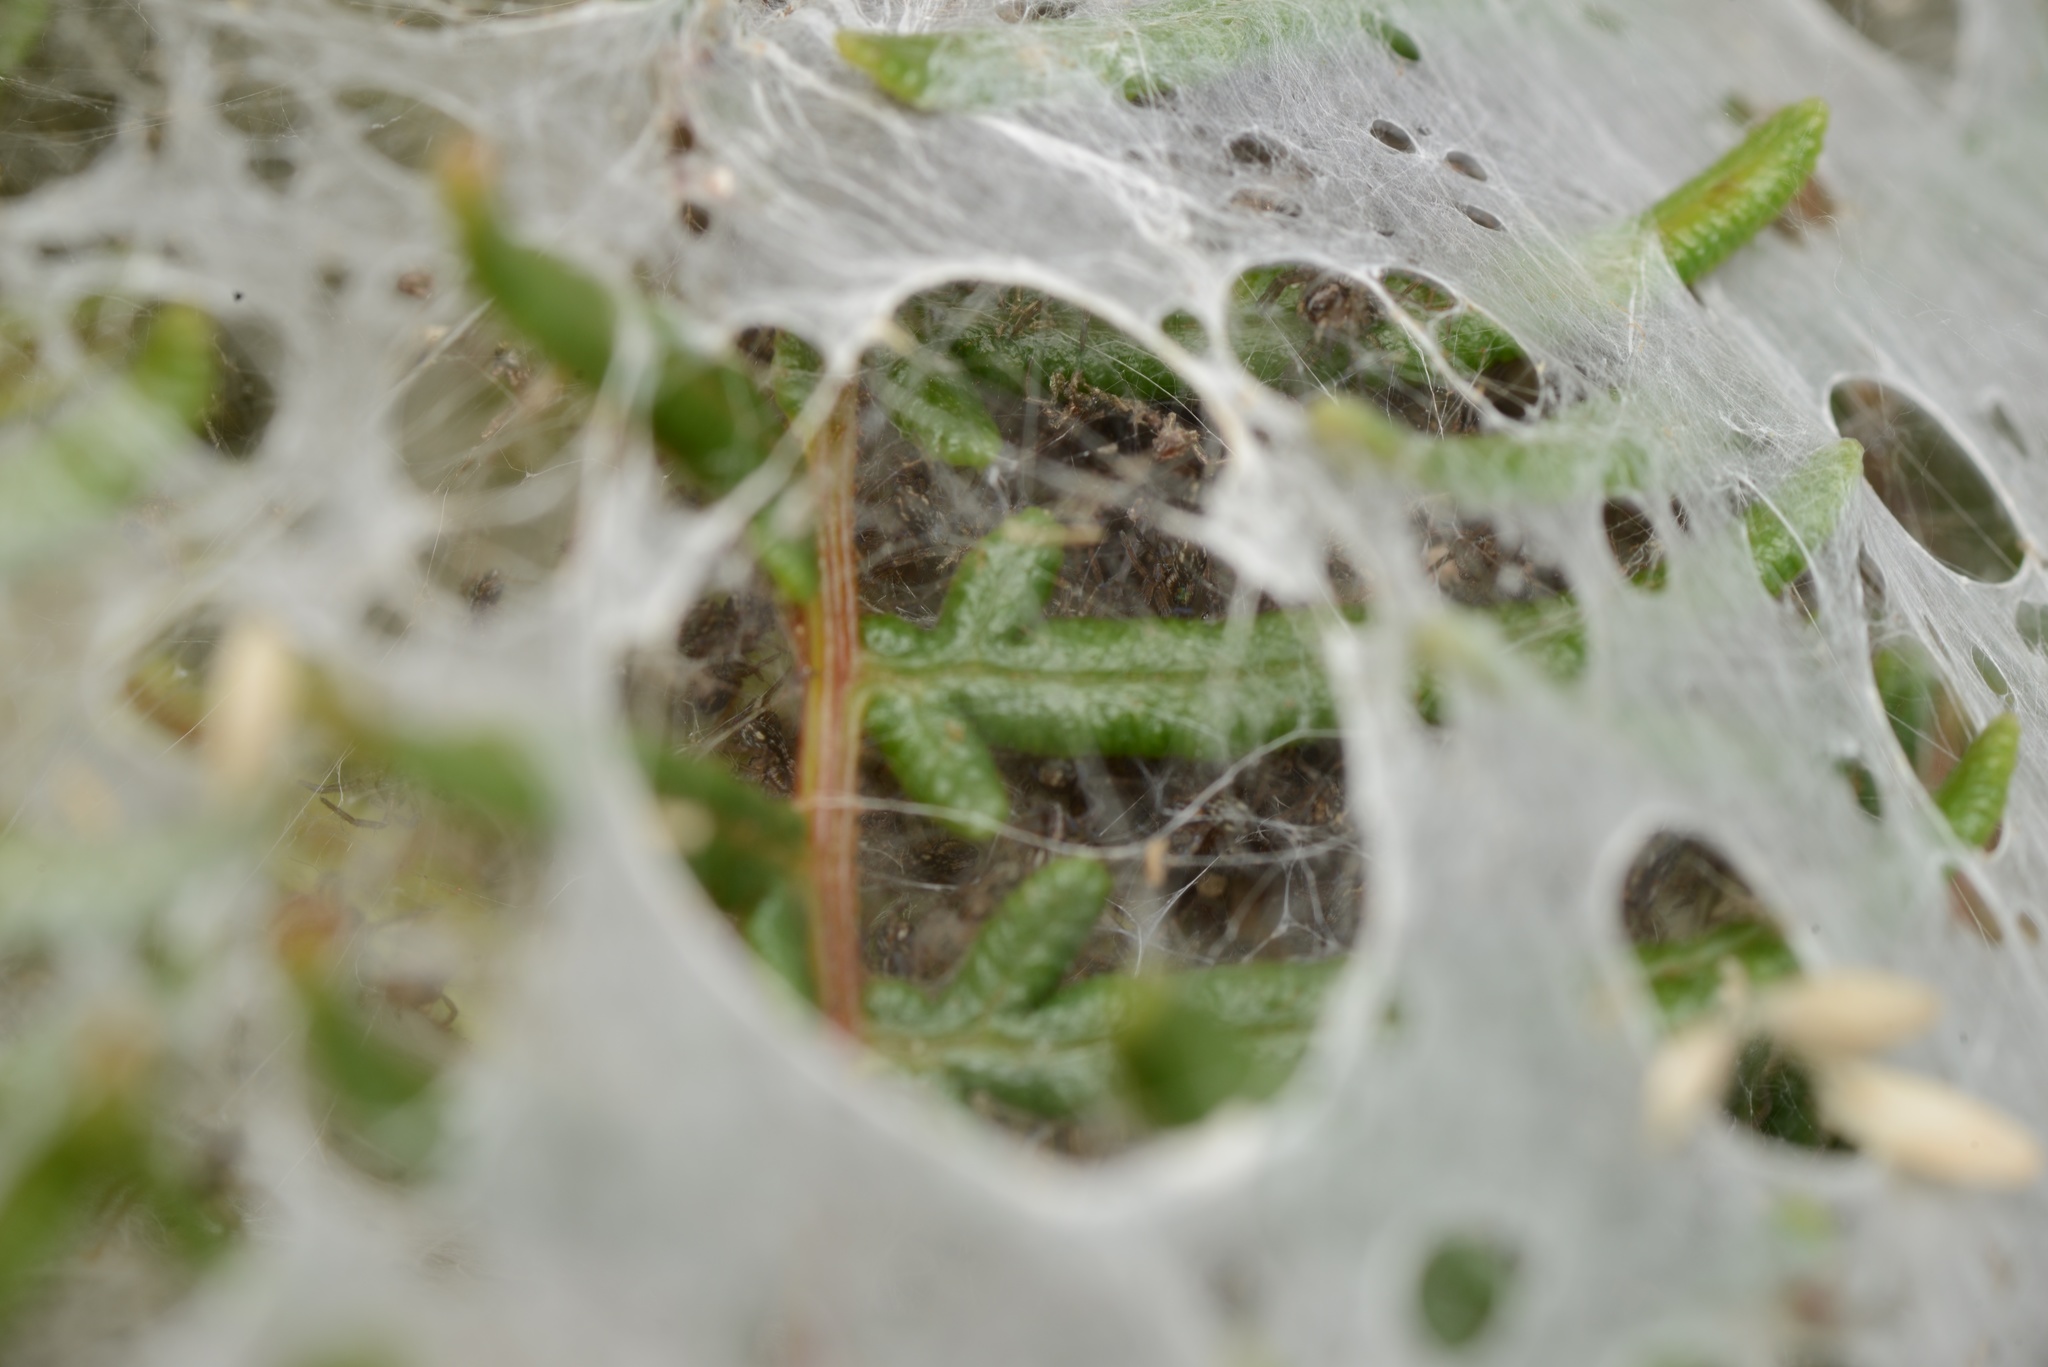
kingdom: Animalia
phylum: Arthropoda
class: Arachnida
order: Araneae
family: Pisauridae
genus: Dolomedes
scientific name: Dolomedes minor
